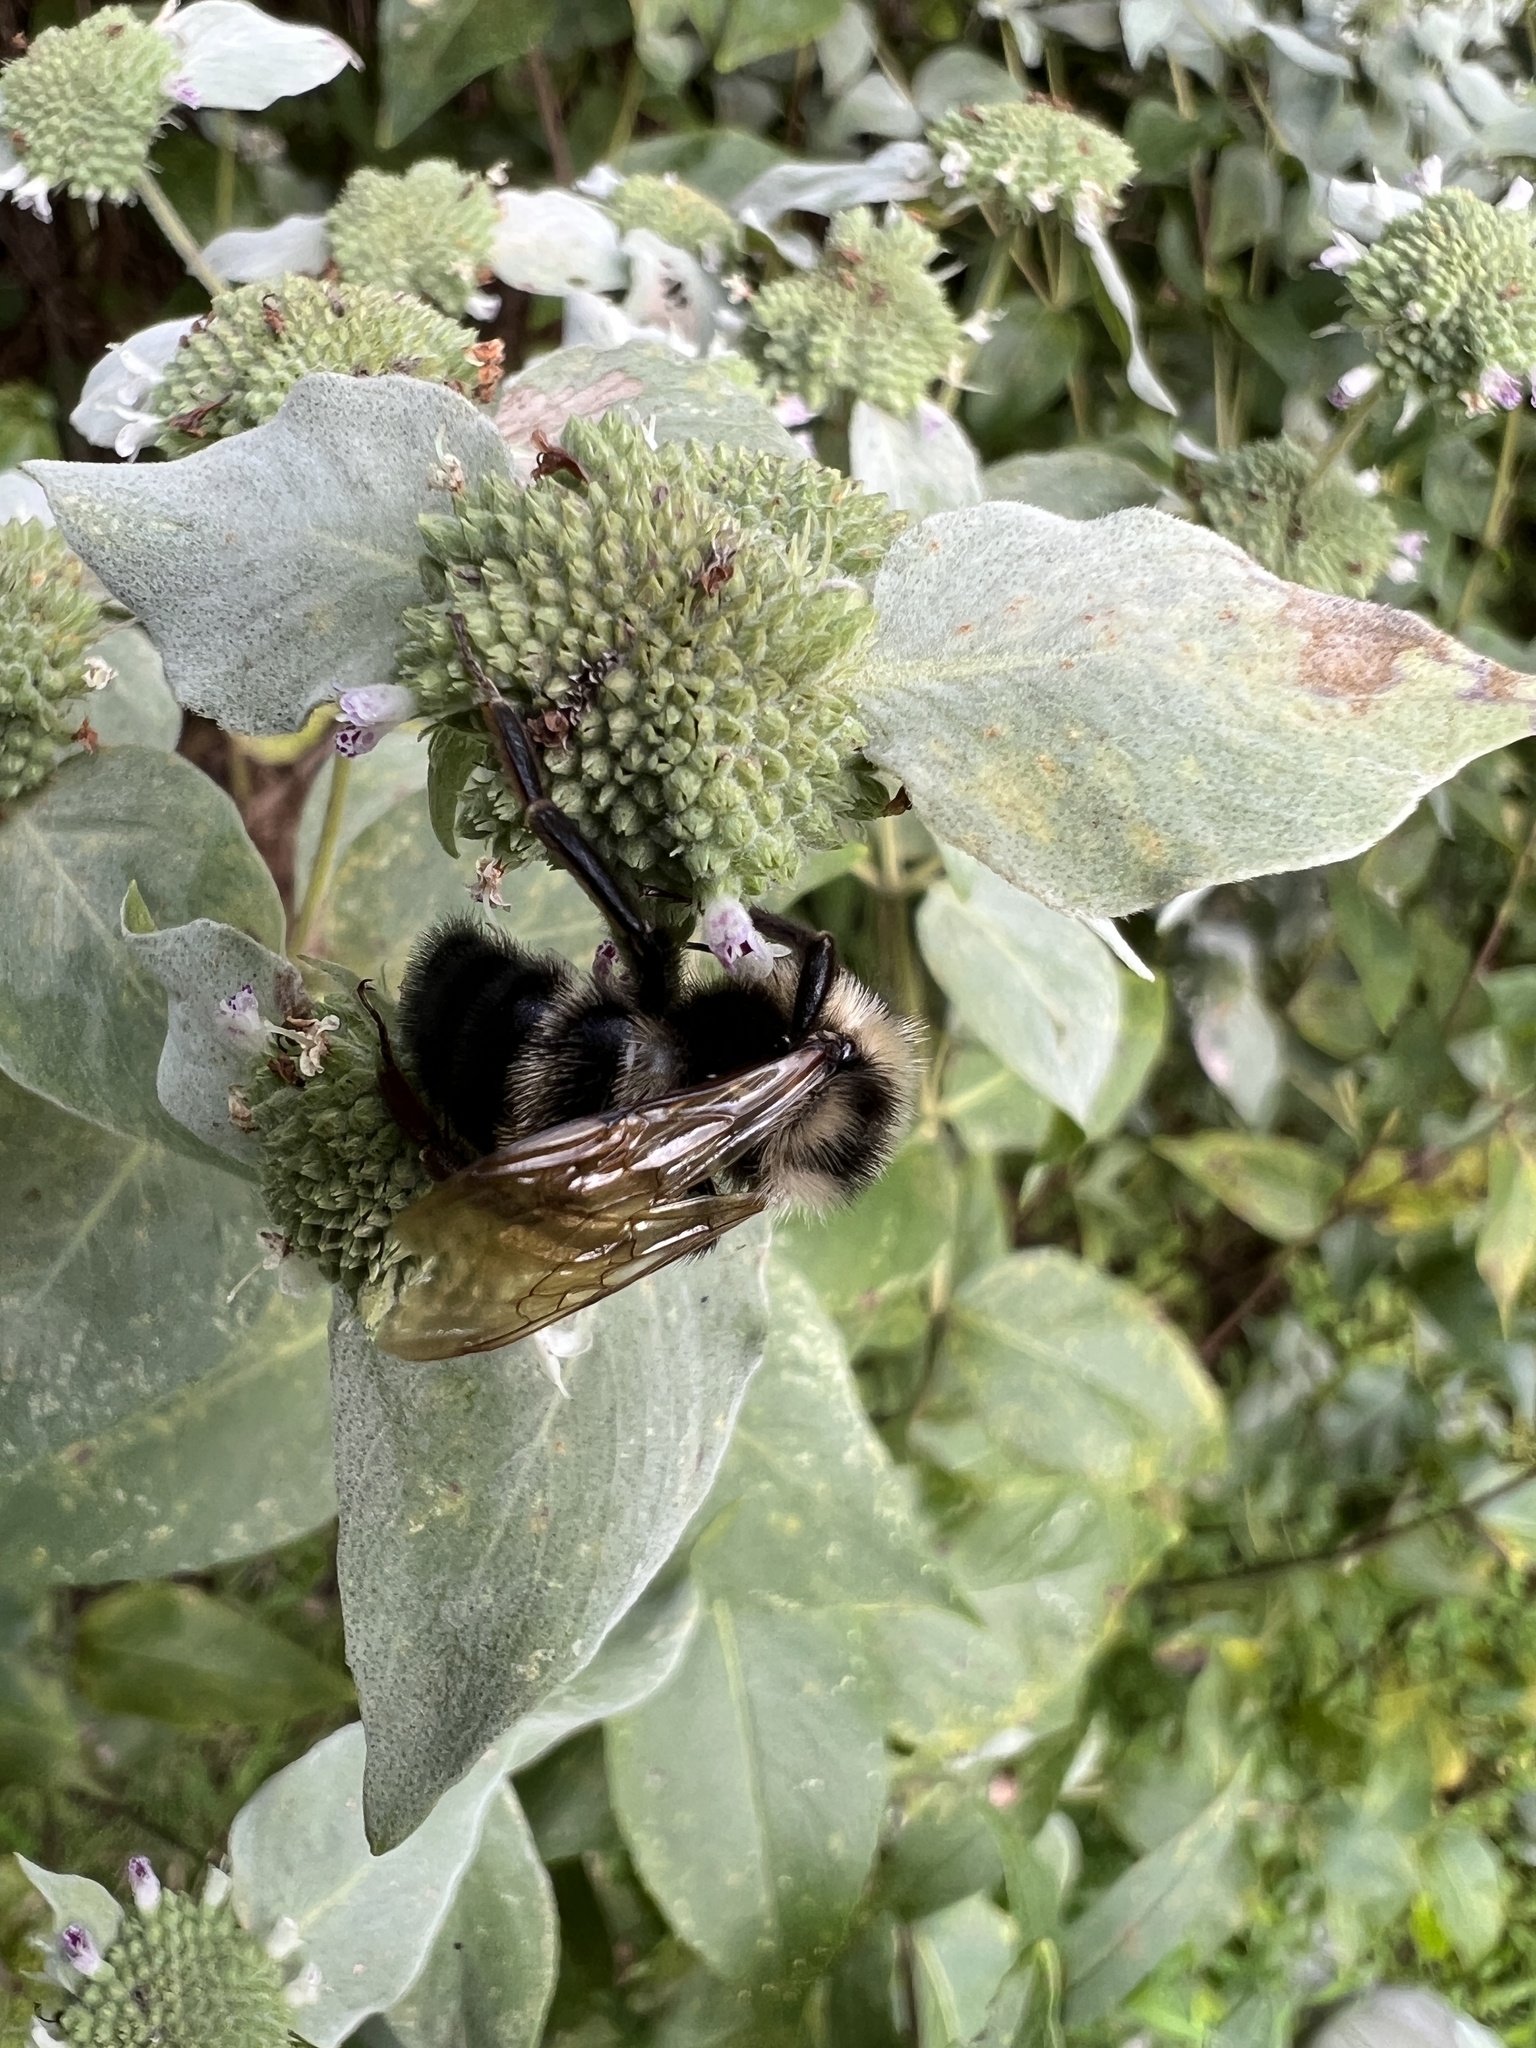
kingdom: Animalia
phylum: Arthropoda
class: Insecta
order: Hymenoptera
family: Apidae
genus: Bombus
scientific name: Bombus citrinus
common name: Lemon cuckoo bumble bee
